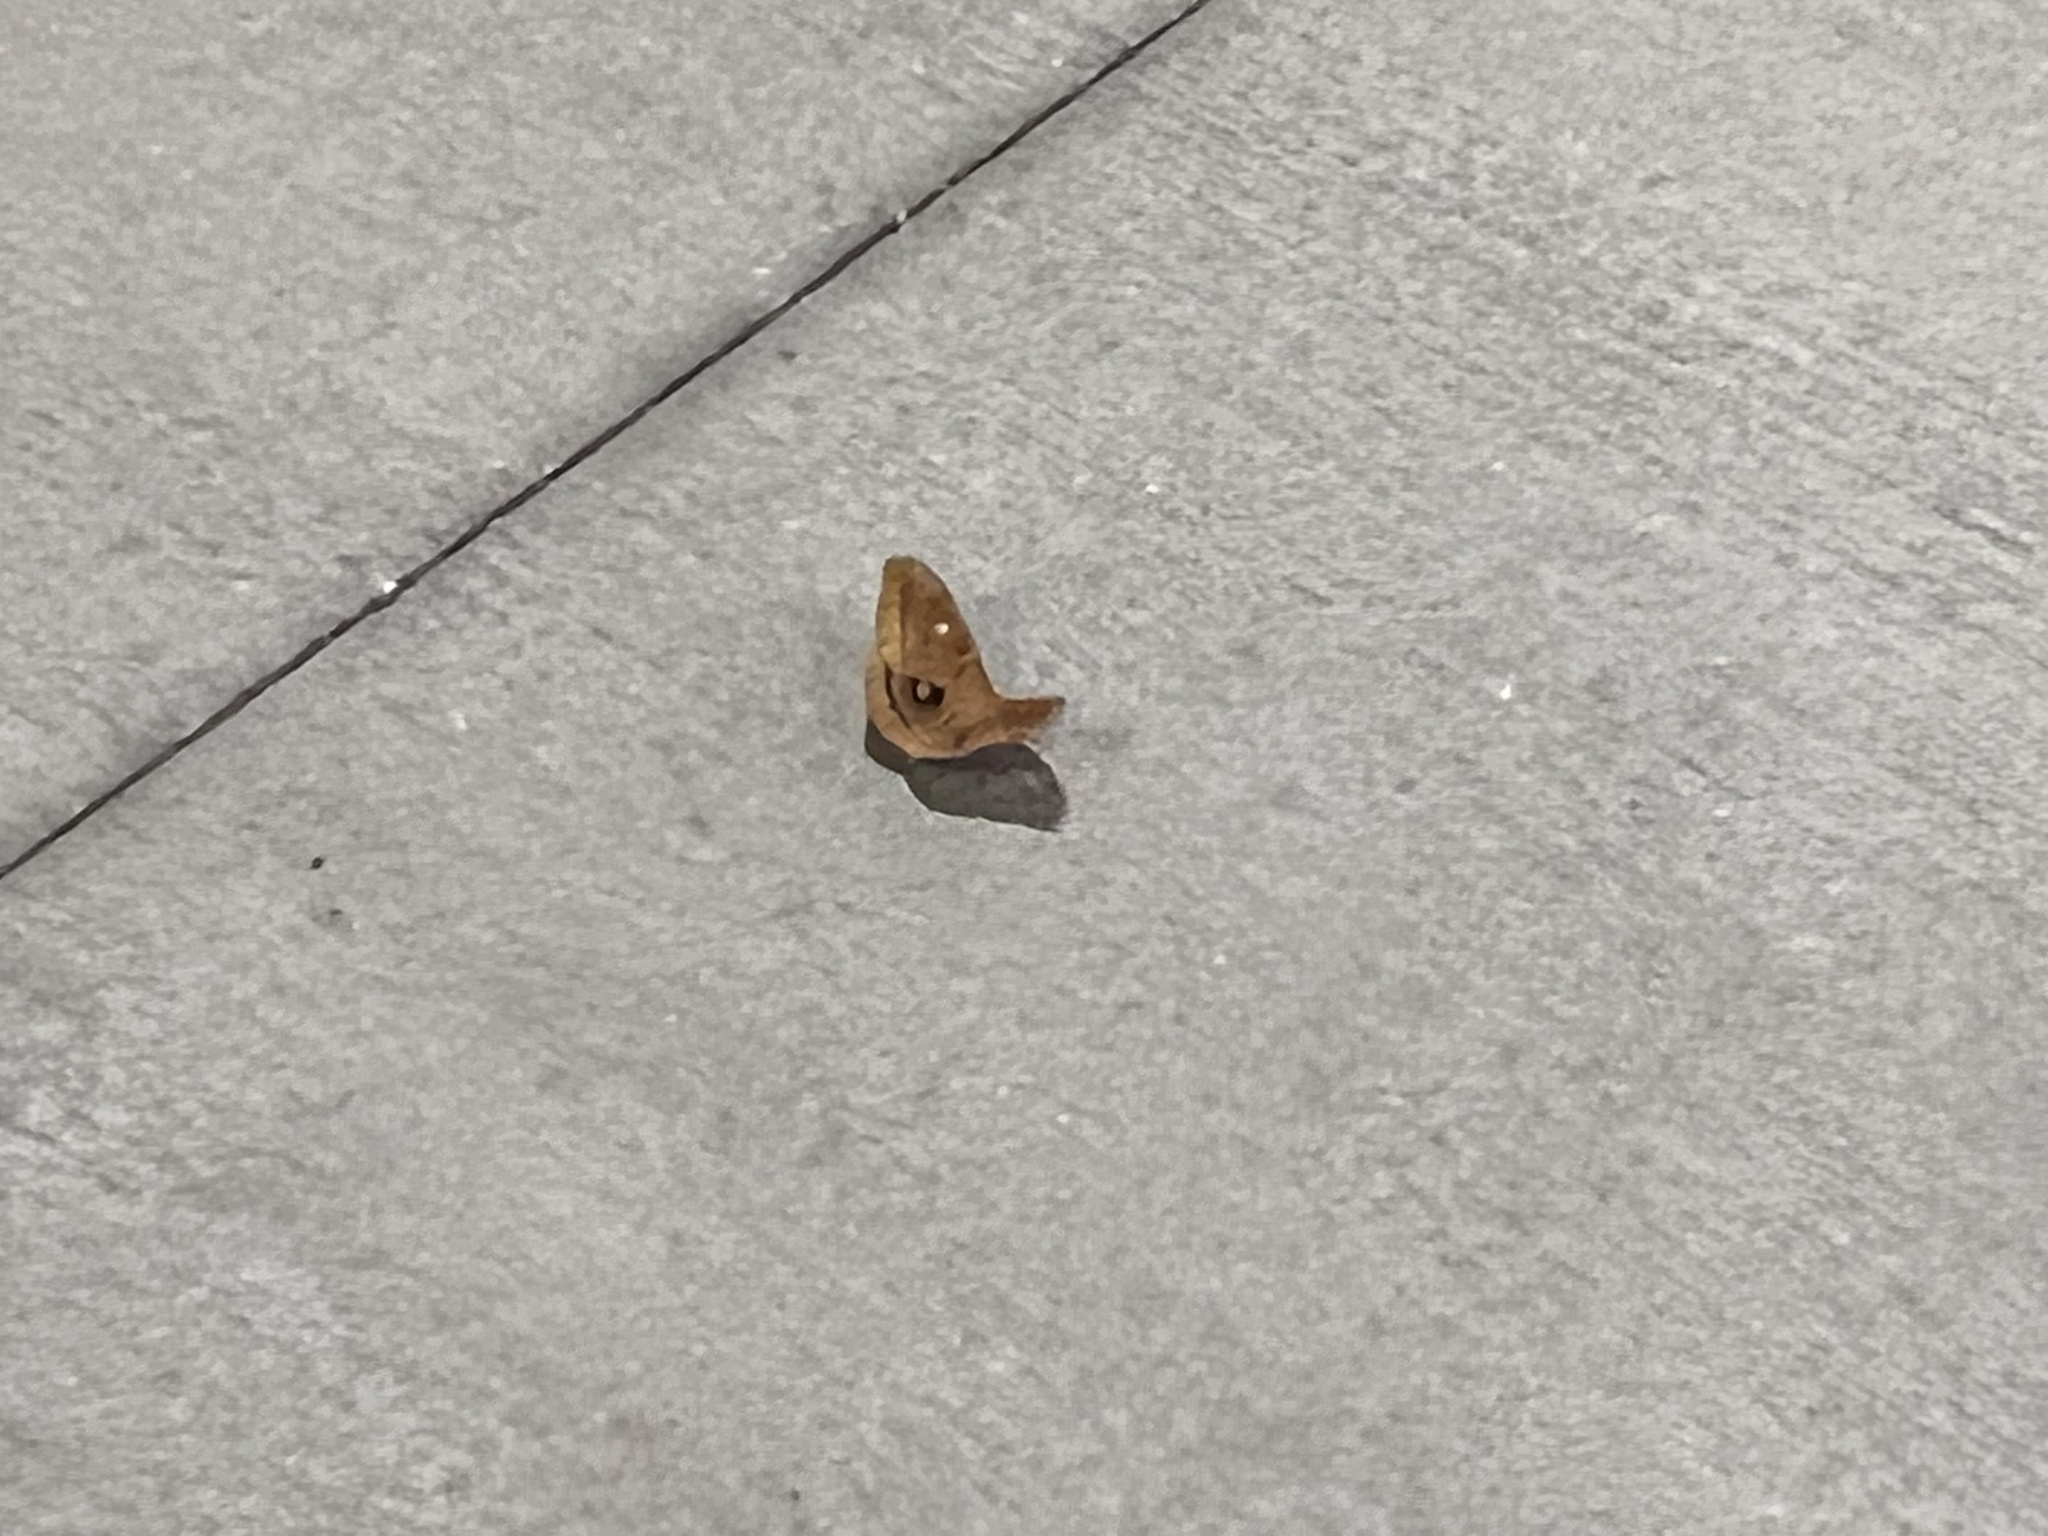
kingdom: Animalia
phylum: Arthropoda
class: Insecta
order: Lepidoptera
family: Saturniidae
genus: Antheraea
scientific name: Antheraea polyphemus
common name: Polyphemus moth
